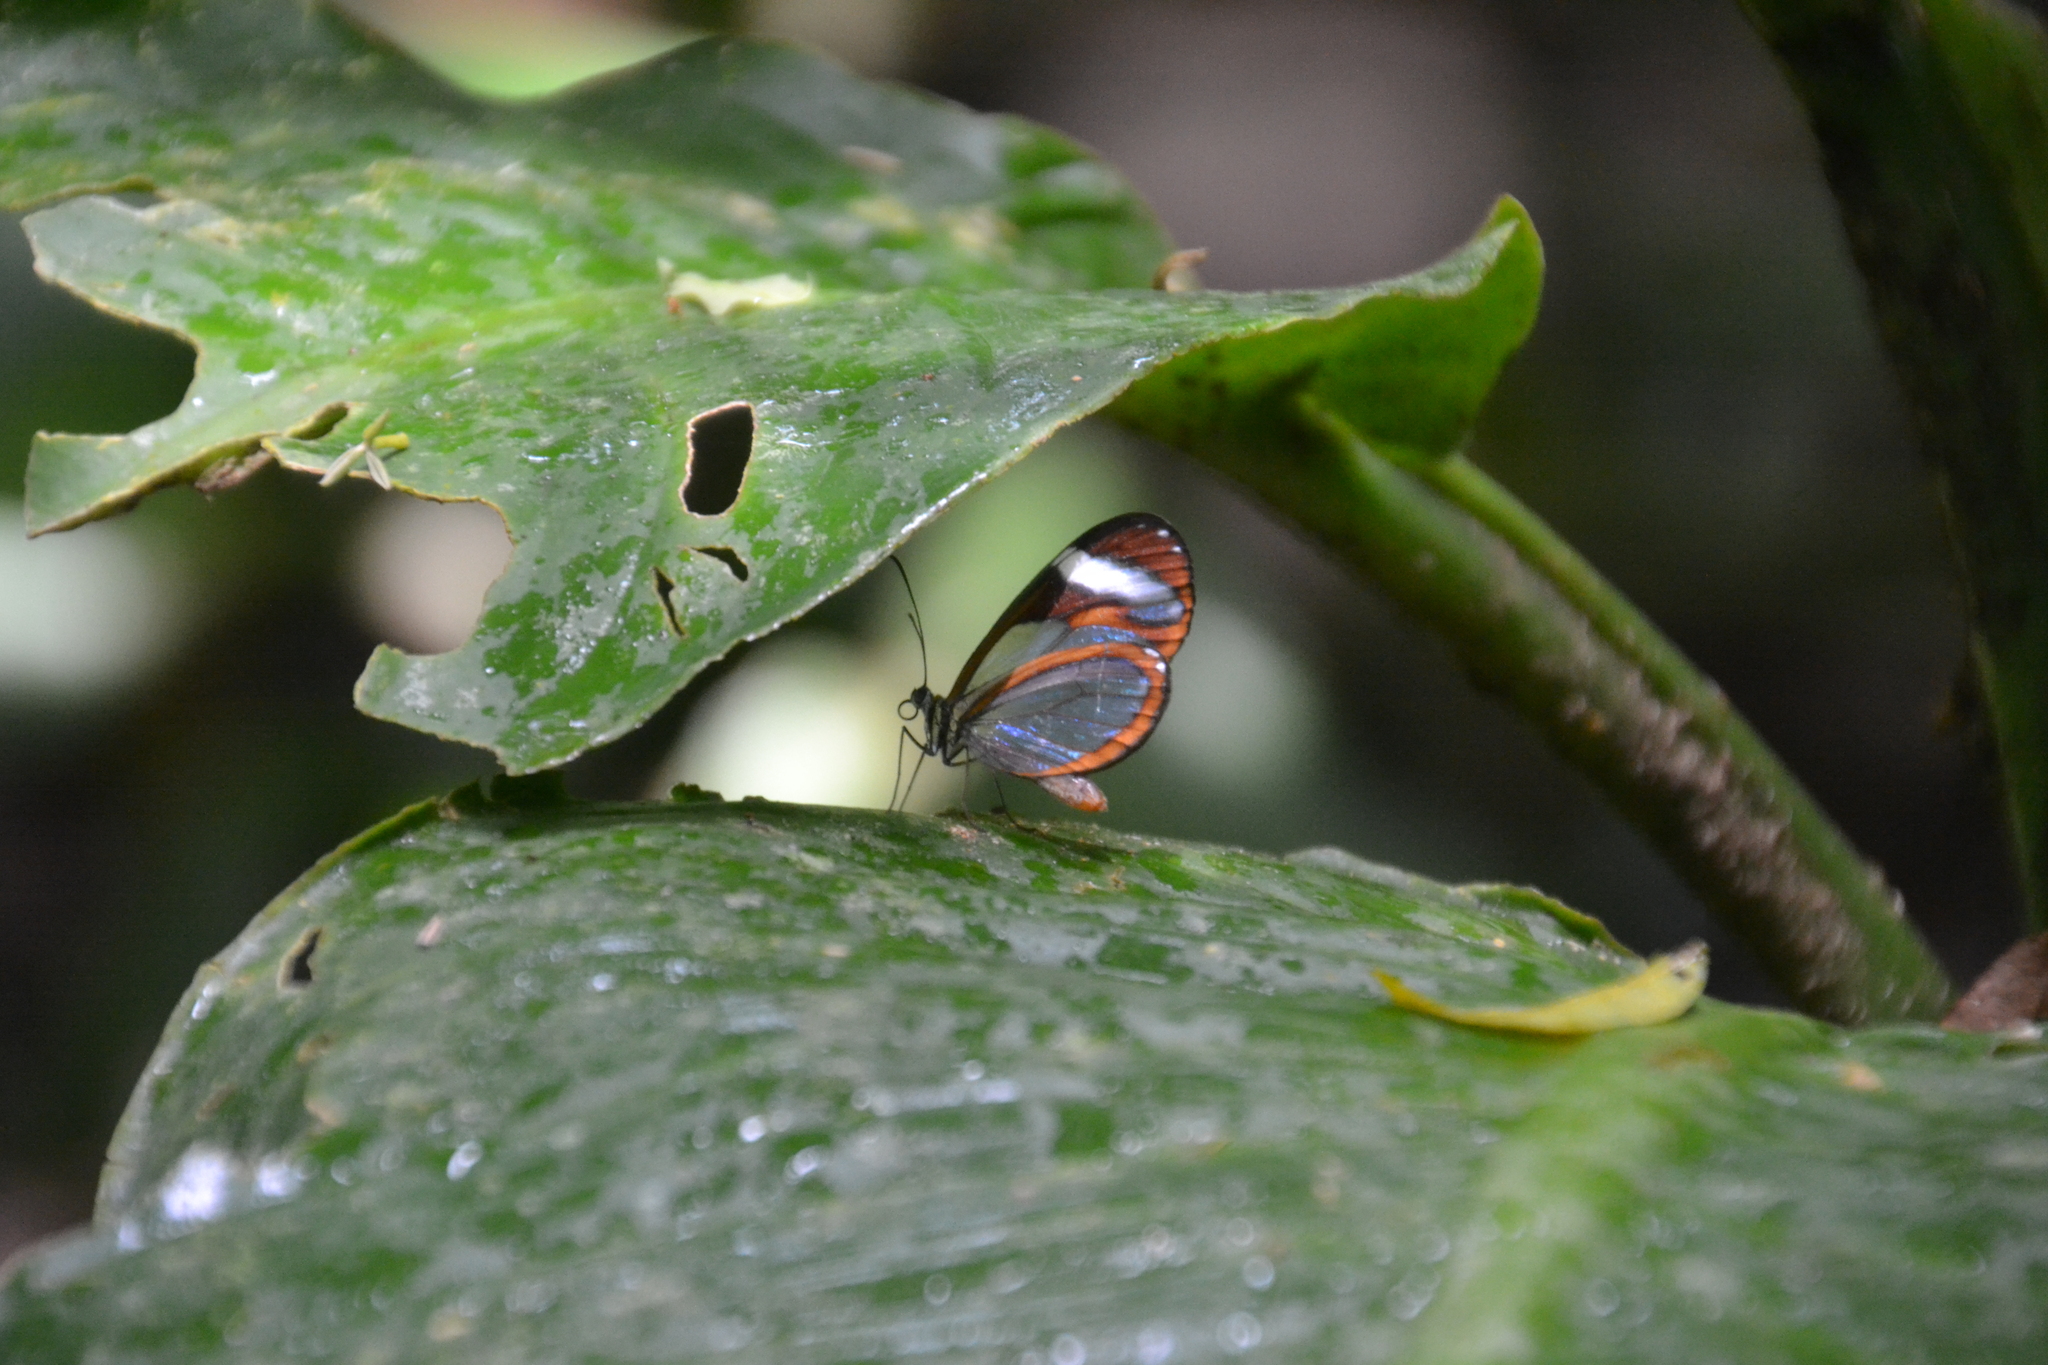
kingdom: Animalia
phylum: Arthropoda
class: Insecta
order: Lepidoptera
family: Nymphalidae
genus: Ithomia
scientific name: Ithomia patilla
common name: Patilla clearwing
